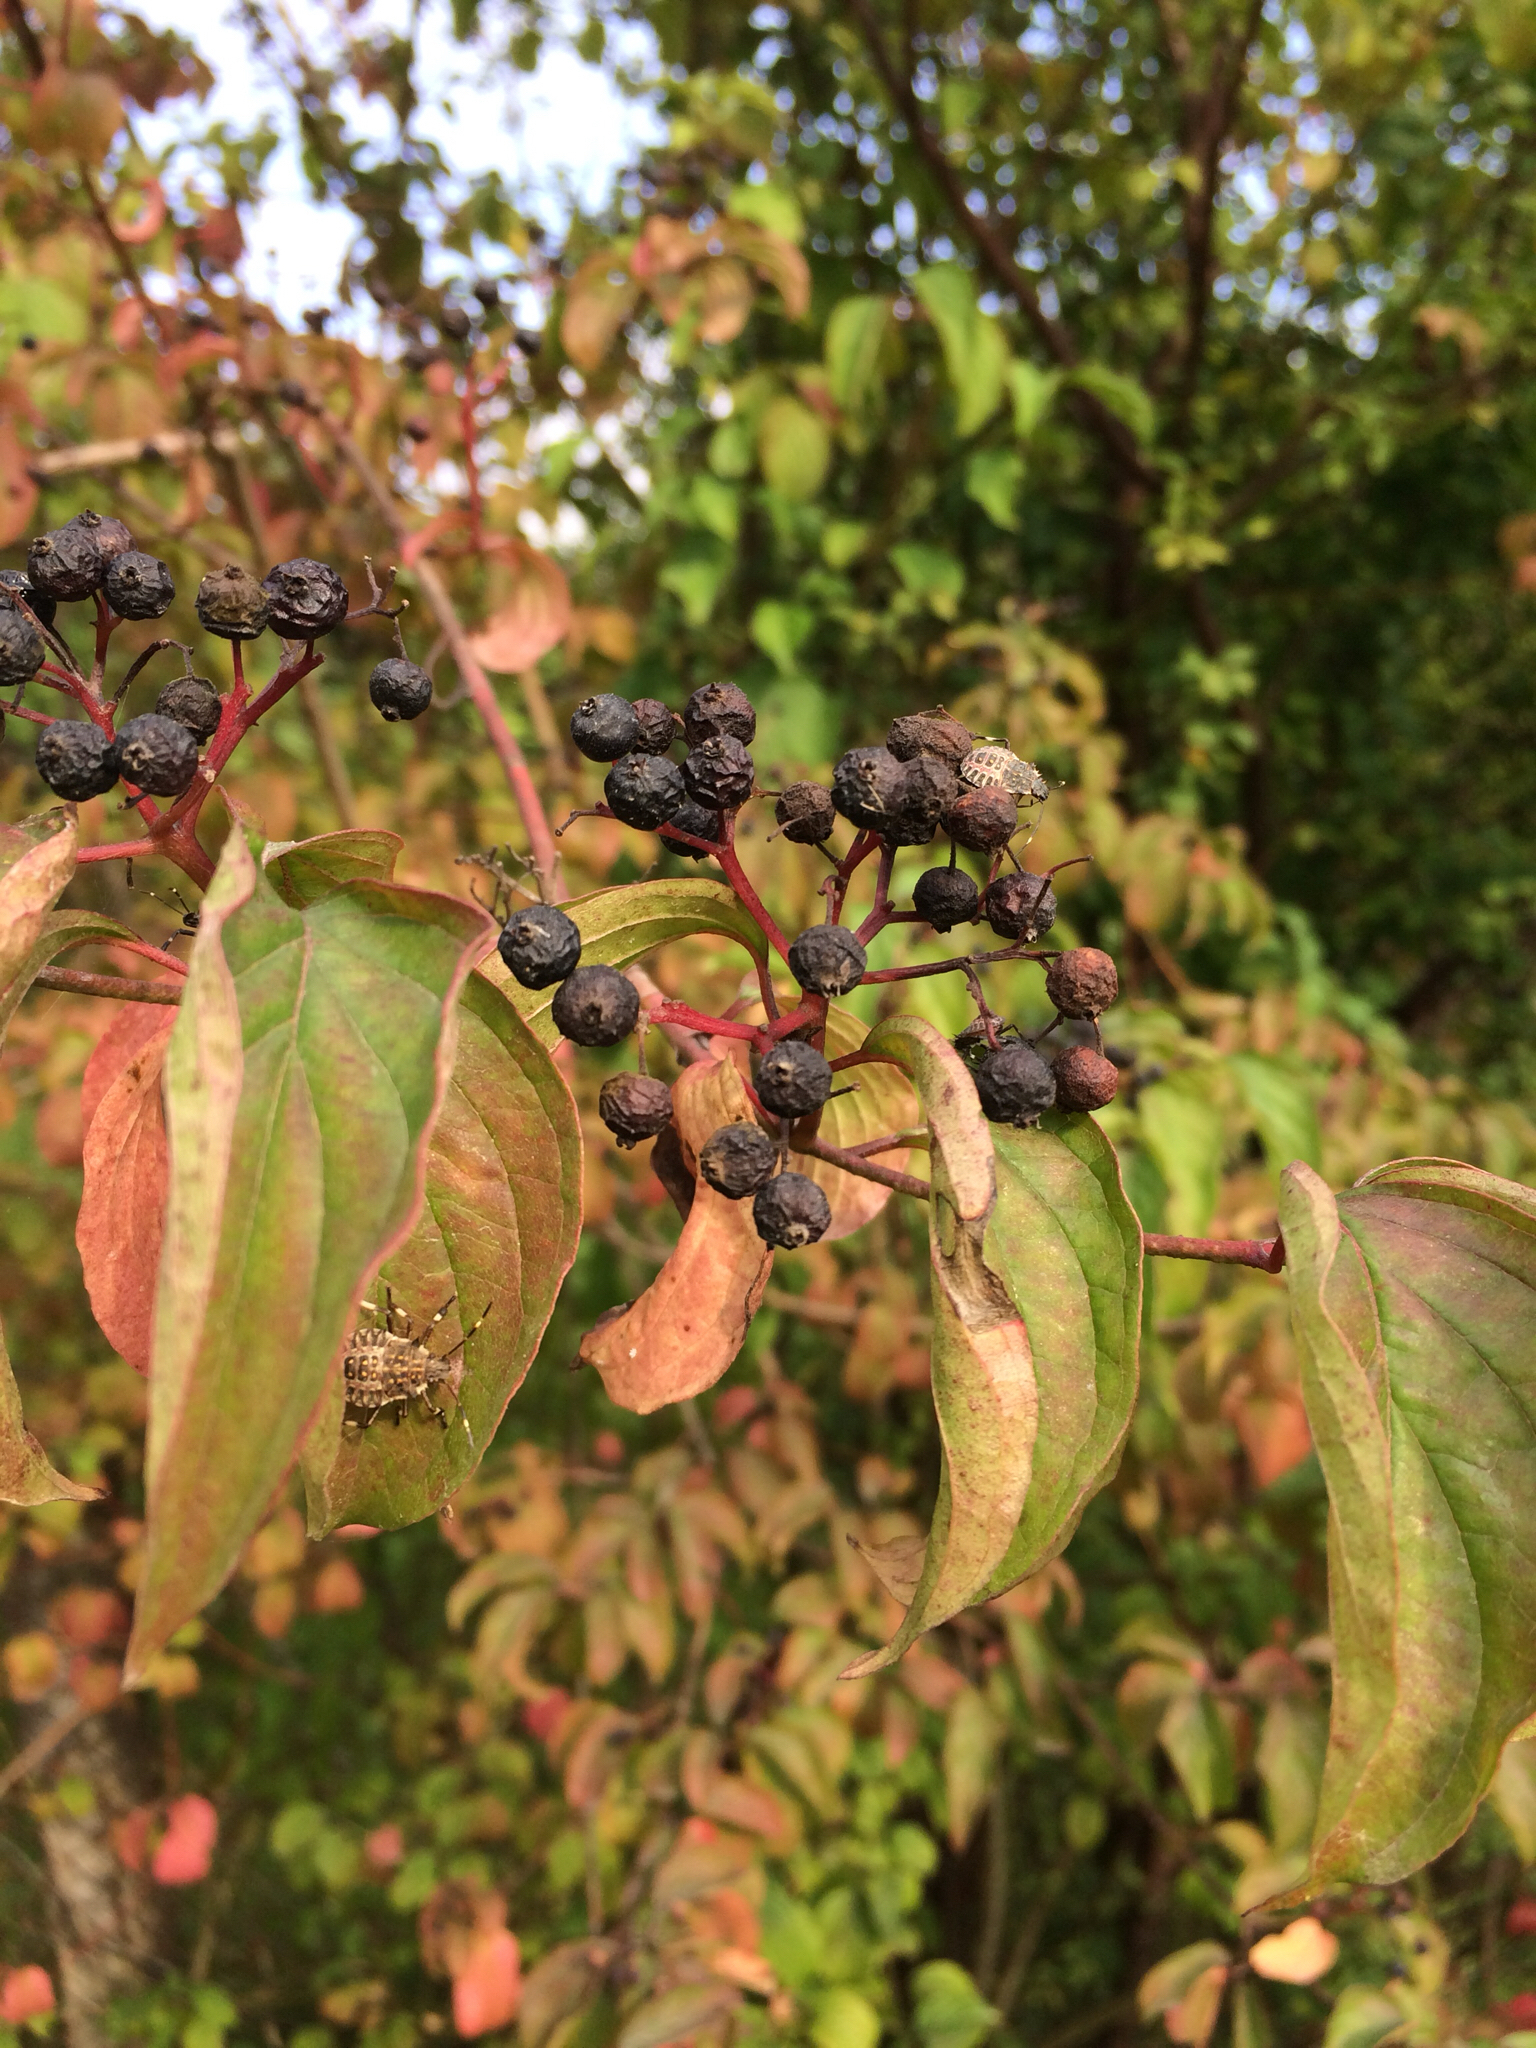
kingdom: Plantae
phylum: Tracheophyta
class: Magnoliopsida
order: Cornales
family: Cornaceae
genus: Cornus
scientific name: Cornus sanguinea
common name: Dogwood
